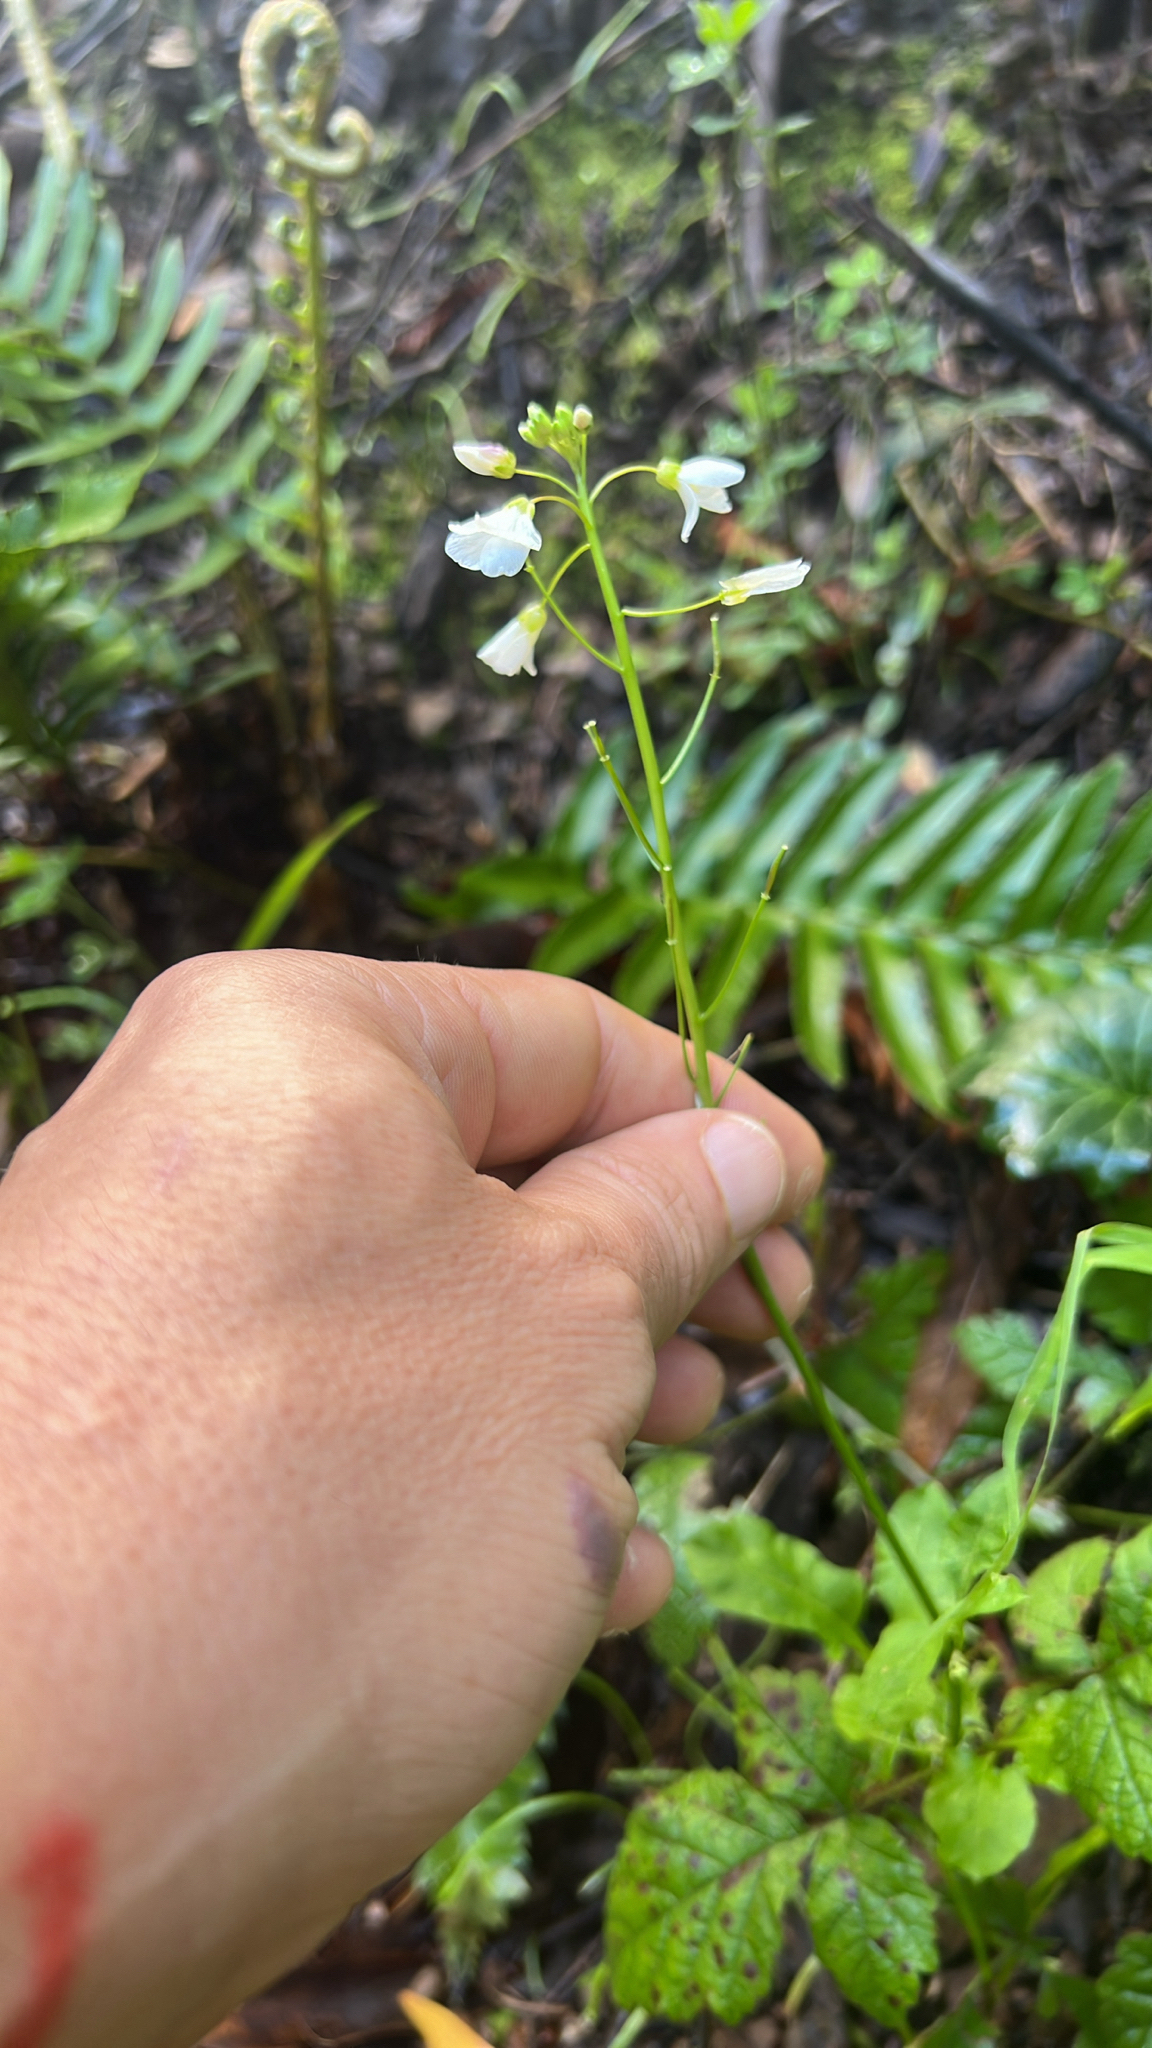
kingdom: Plantae
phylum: Tracheophyta
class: Magnoliopsida
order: Brassicales
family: Brassicaceae
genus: Cardamine
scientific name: Cardamine californica
